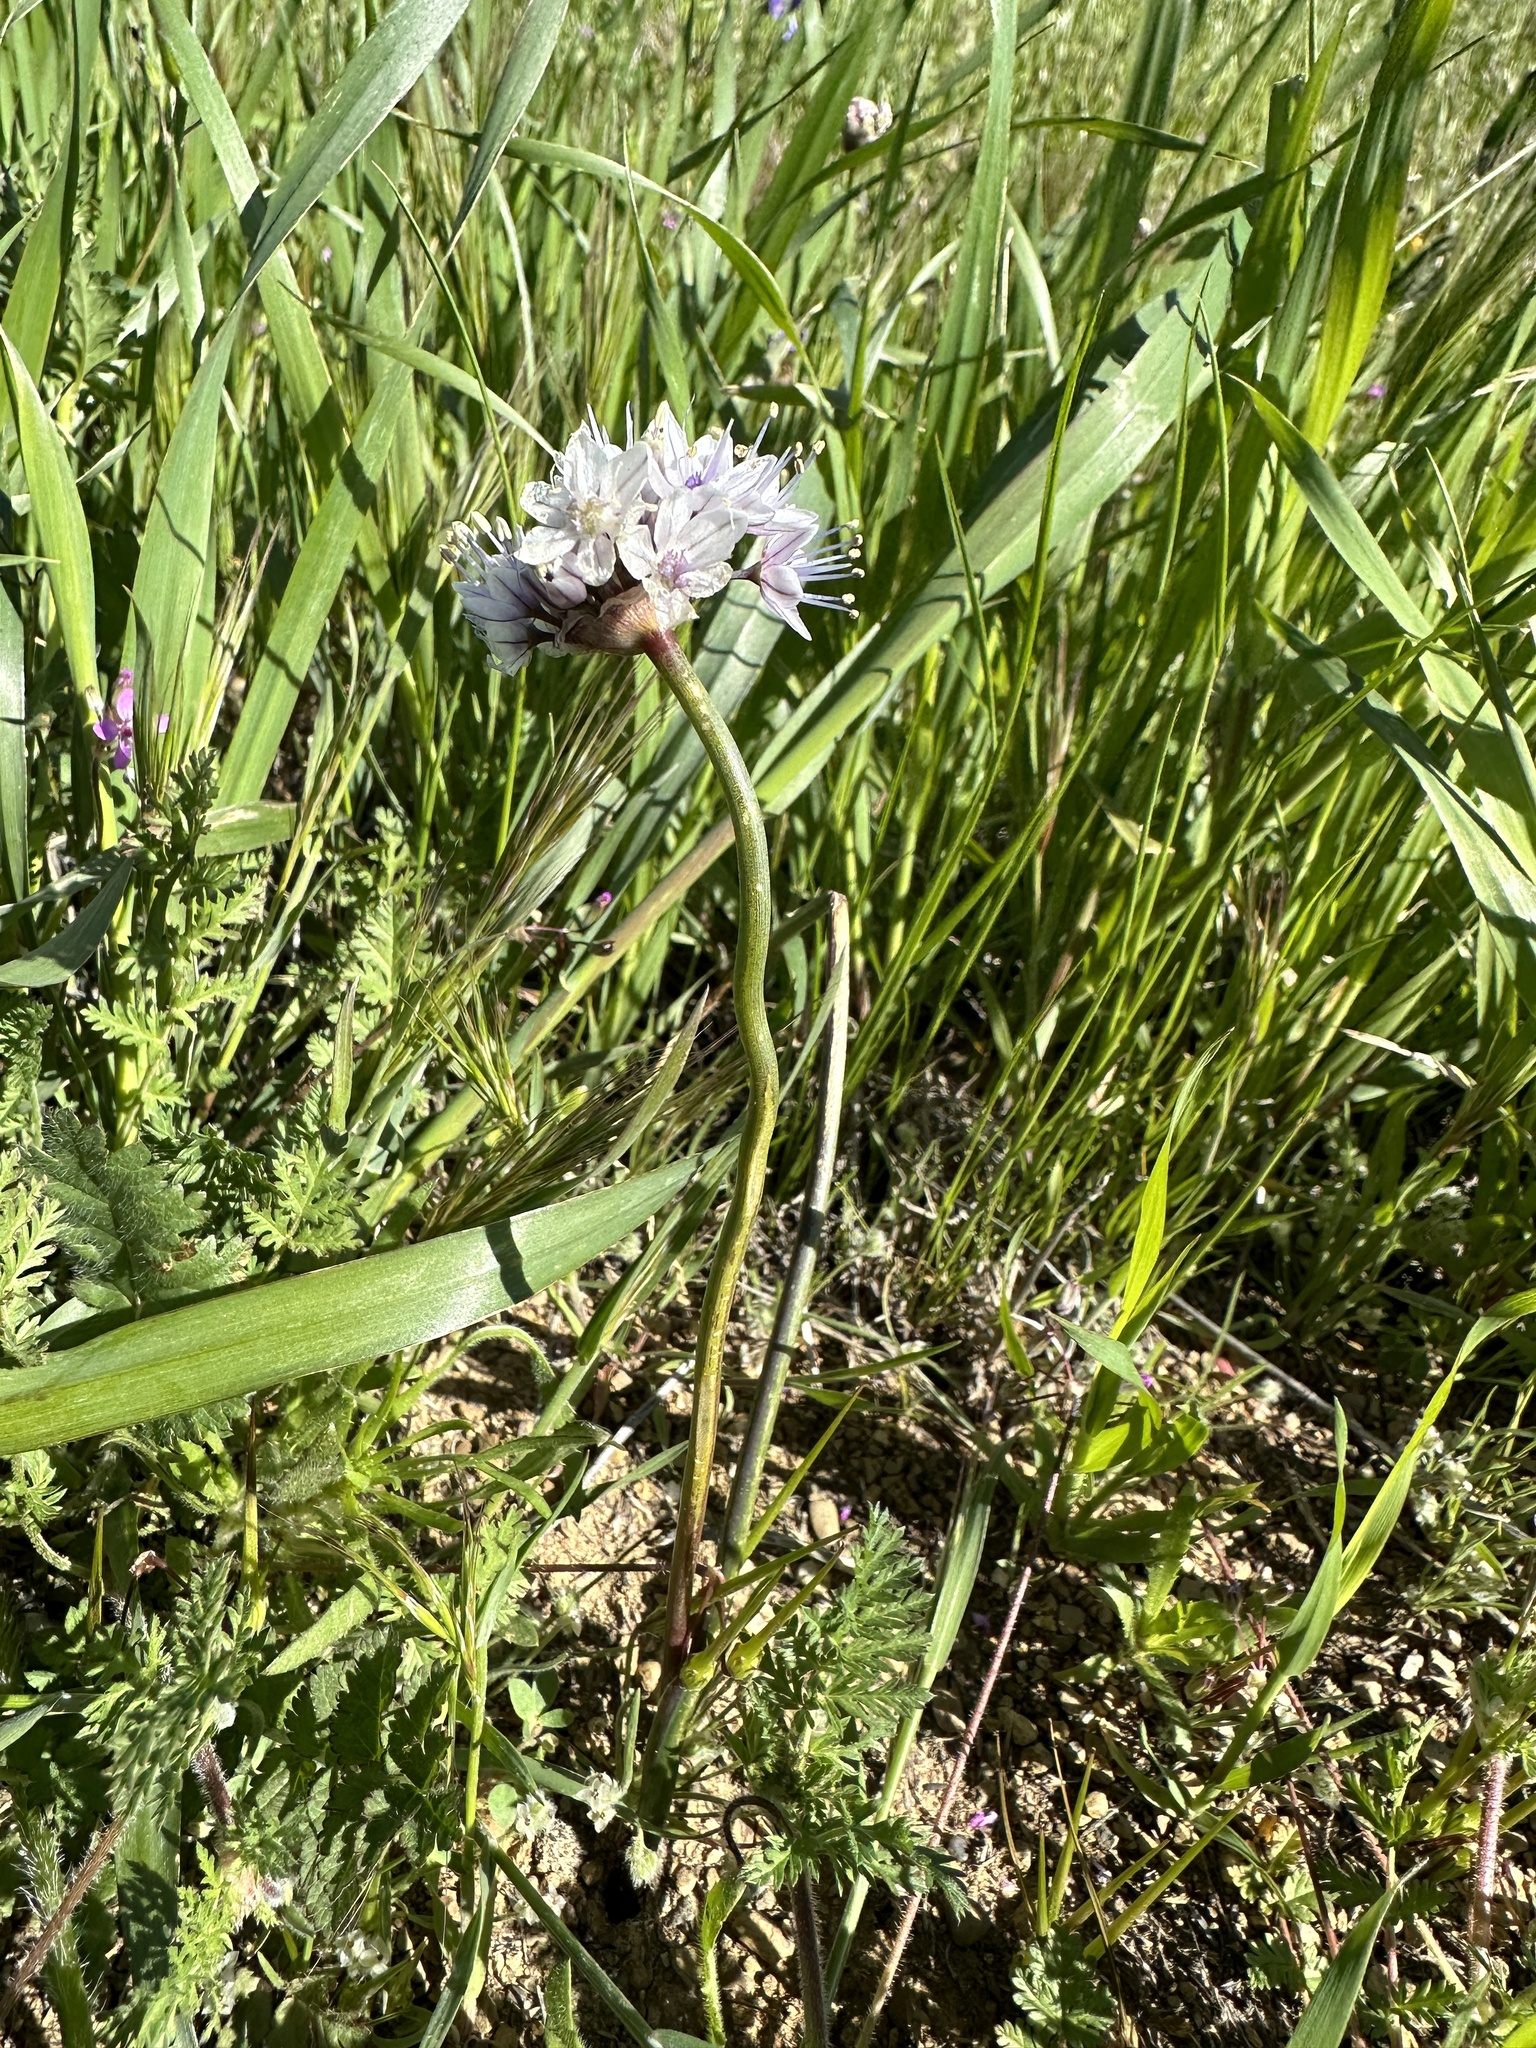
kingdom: Plantae
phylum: Tracheophyta
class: Liliopsida
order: Asparagales
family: Amaryllidaceae
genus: Allium
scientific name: Allium howellii
